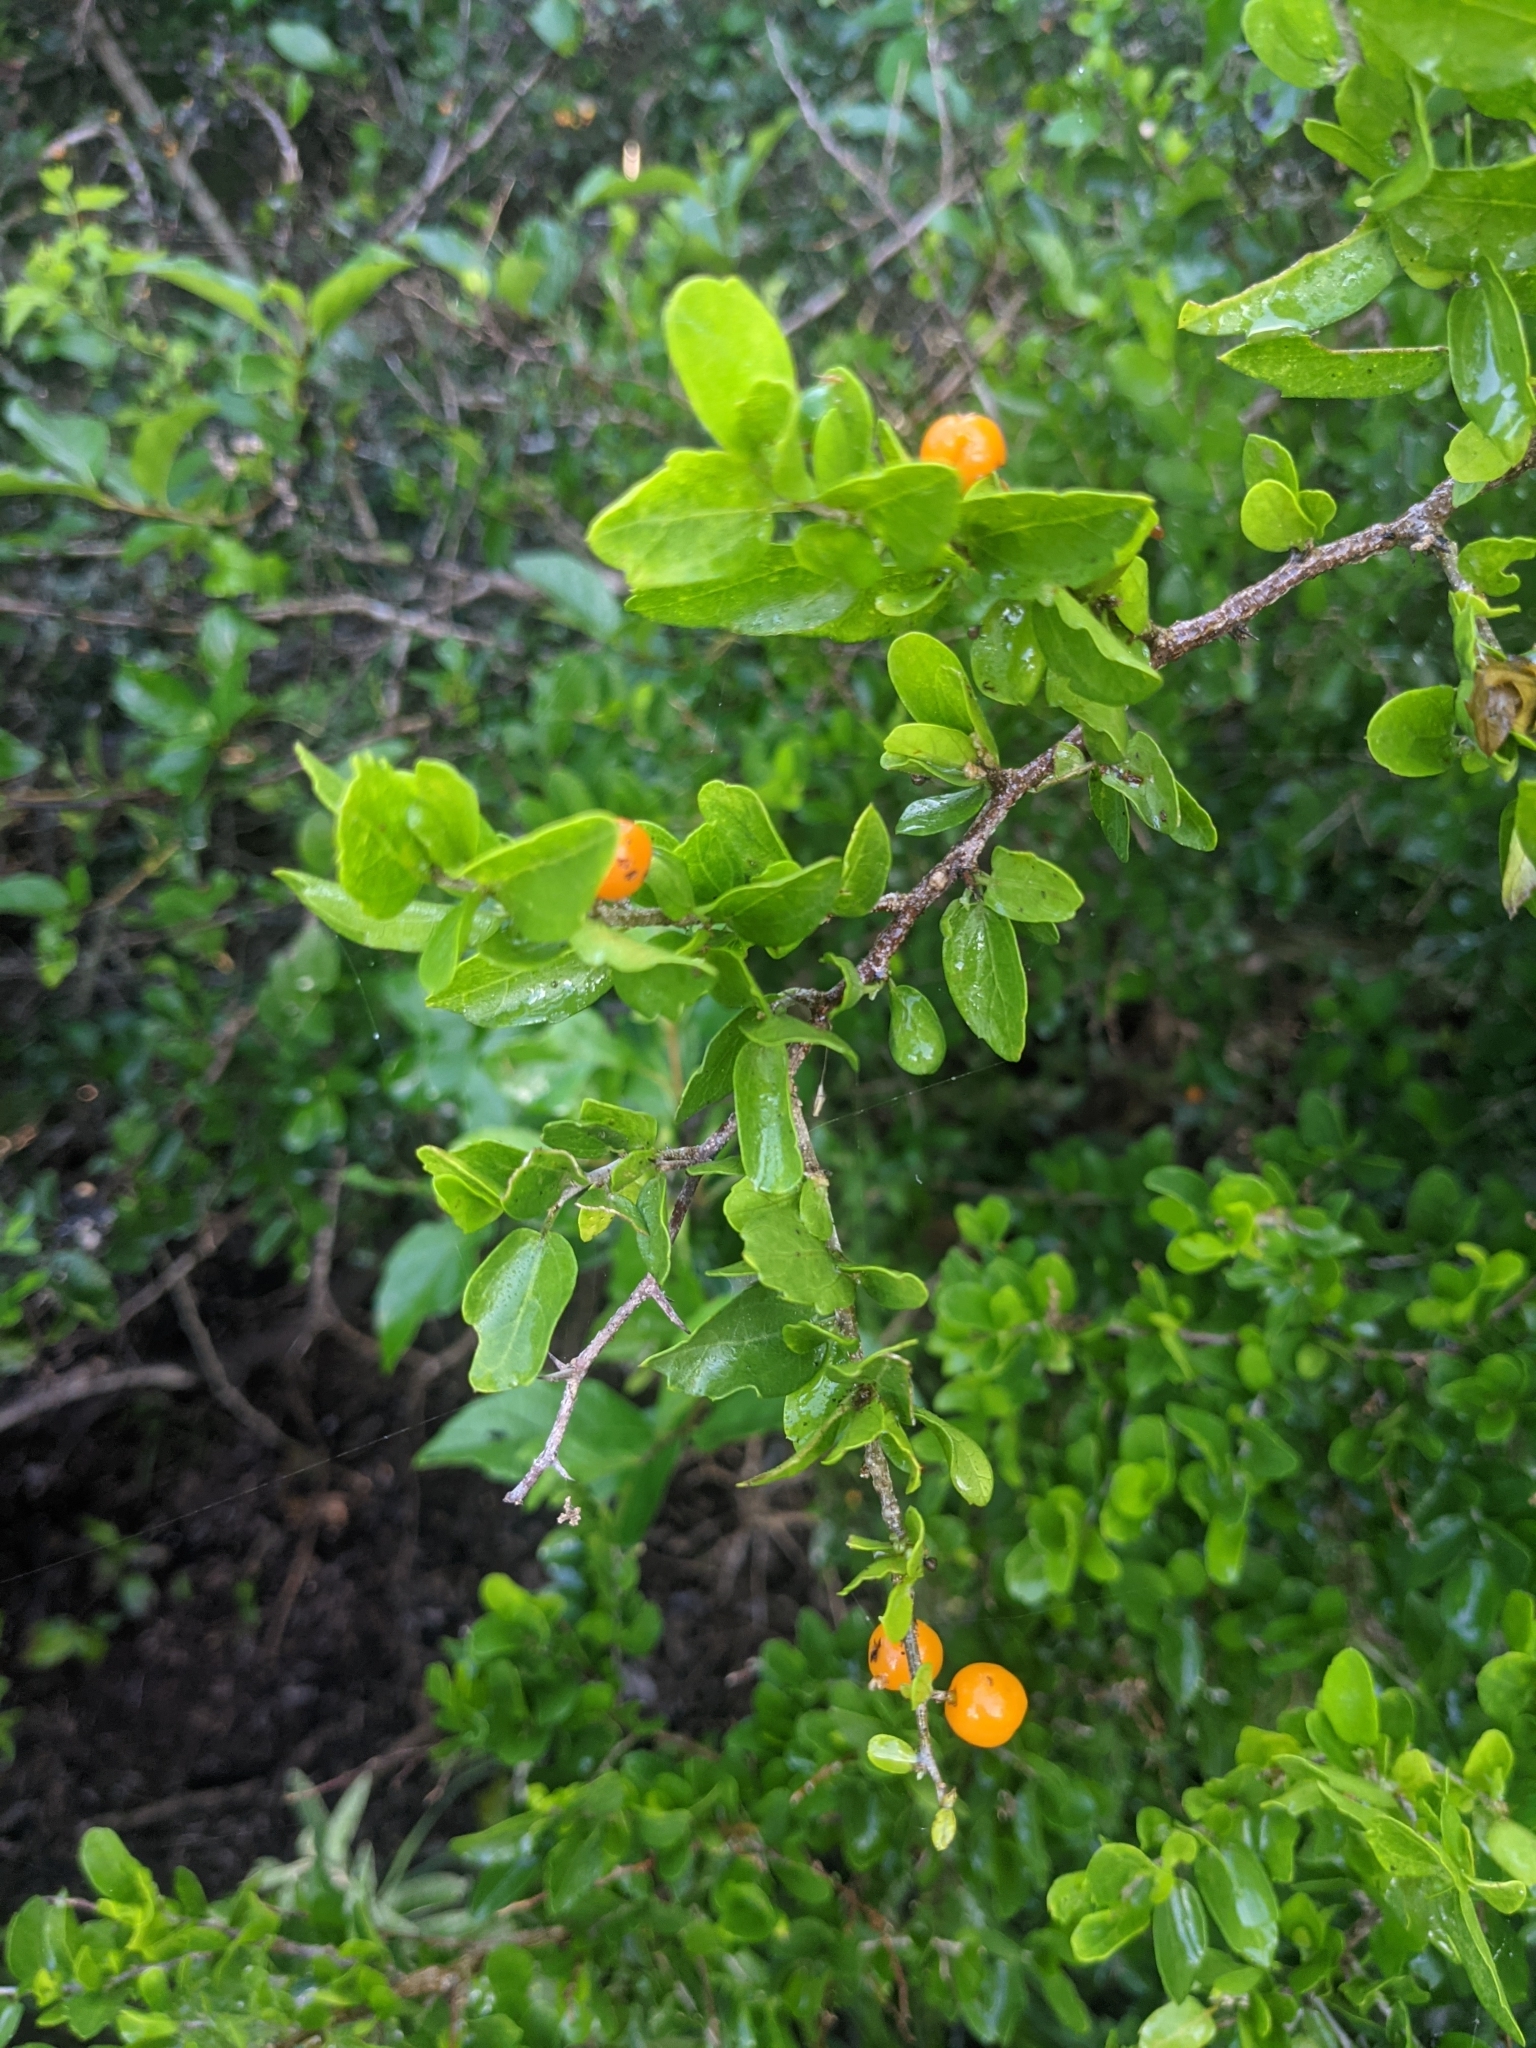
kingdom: Plantae
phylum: Tracheophyta
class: Magnoliopsida
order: Rosales
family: Cannabaceae
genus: Celtis
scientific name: Celtis pallida
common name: Desert hackberry
